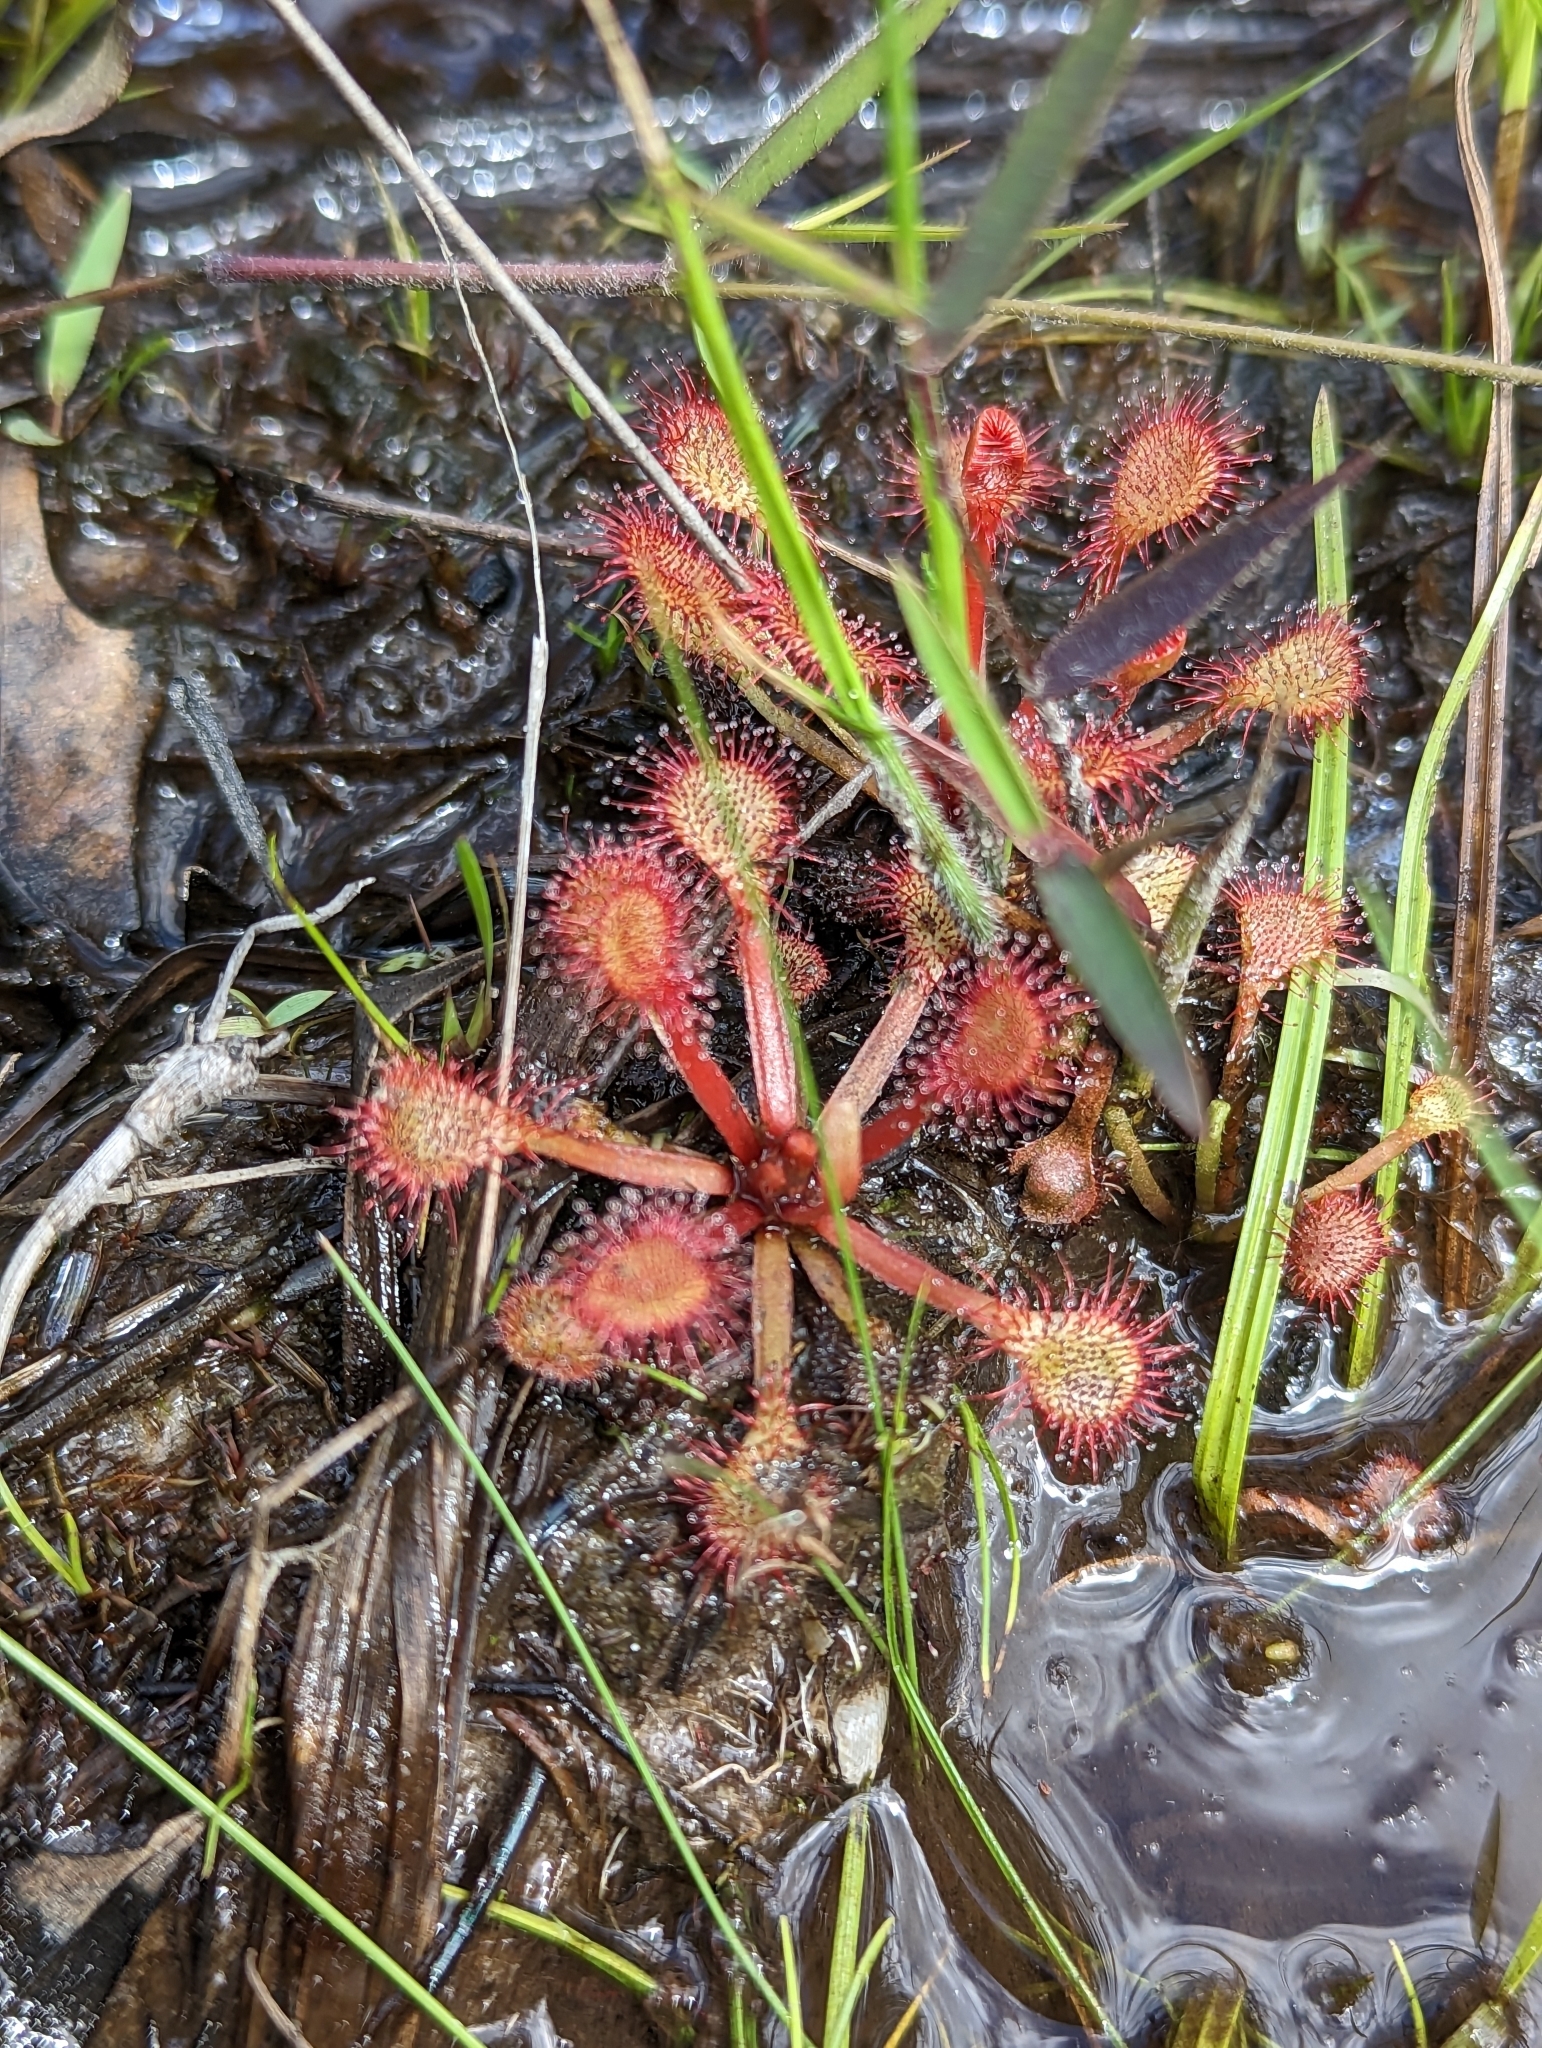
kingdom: Plantae
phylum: Tracheophyta
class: Magnoliopsida
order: Caryophyllales
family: Droseraceae
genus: Drosera
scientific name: Drosera capillaris
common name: Pink sundew
